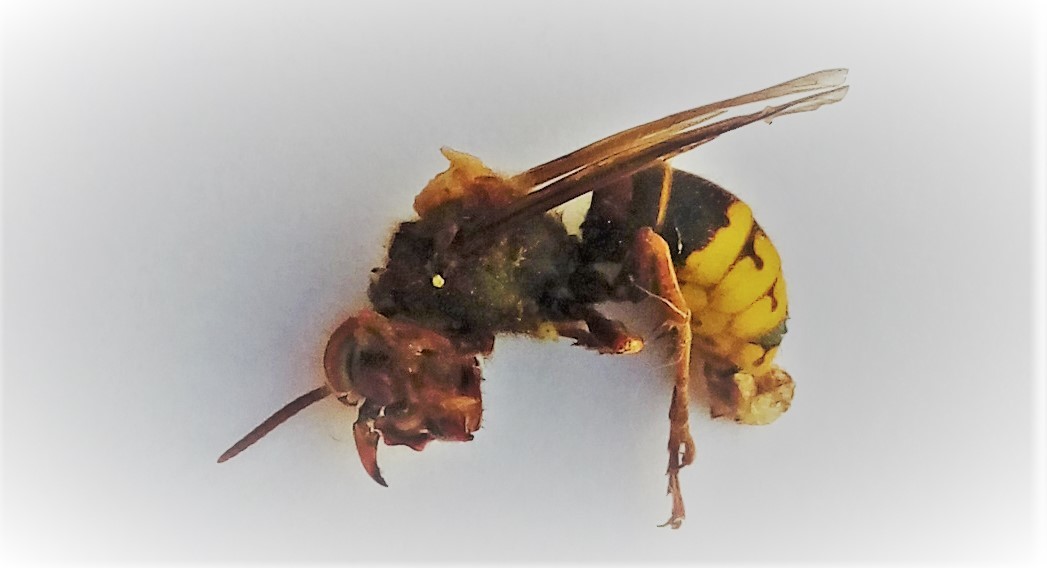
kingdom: Animalia
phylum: Arthropoda
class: Insecta
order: Hymenoptera
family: Vespidae
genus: Vespa
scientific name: Vespa crabro
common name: Hornet
